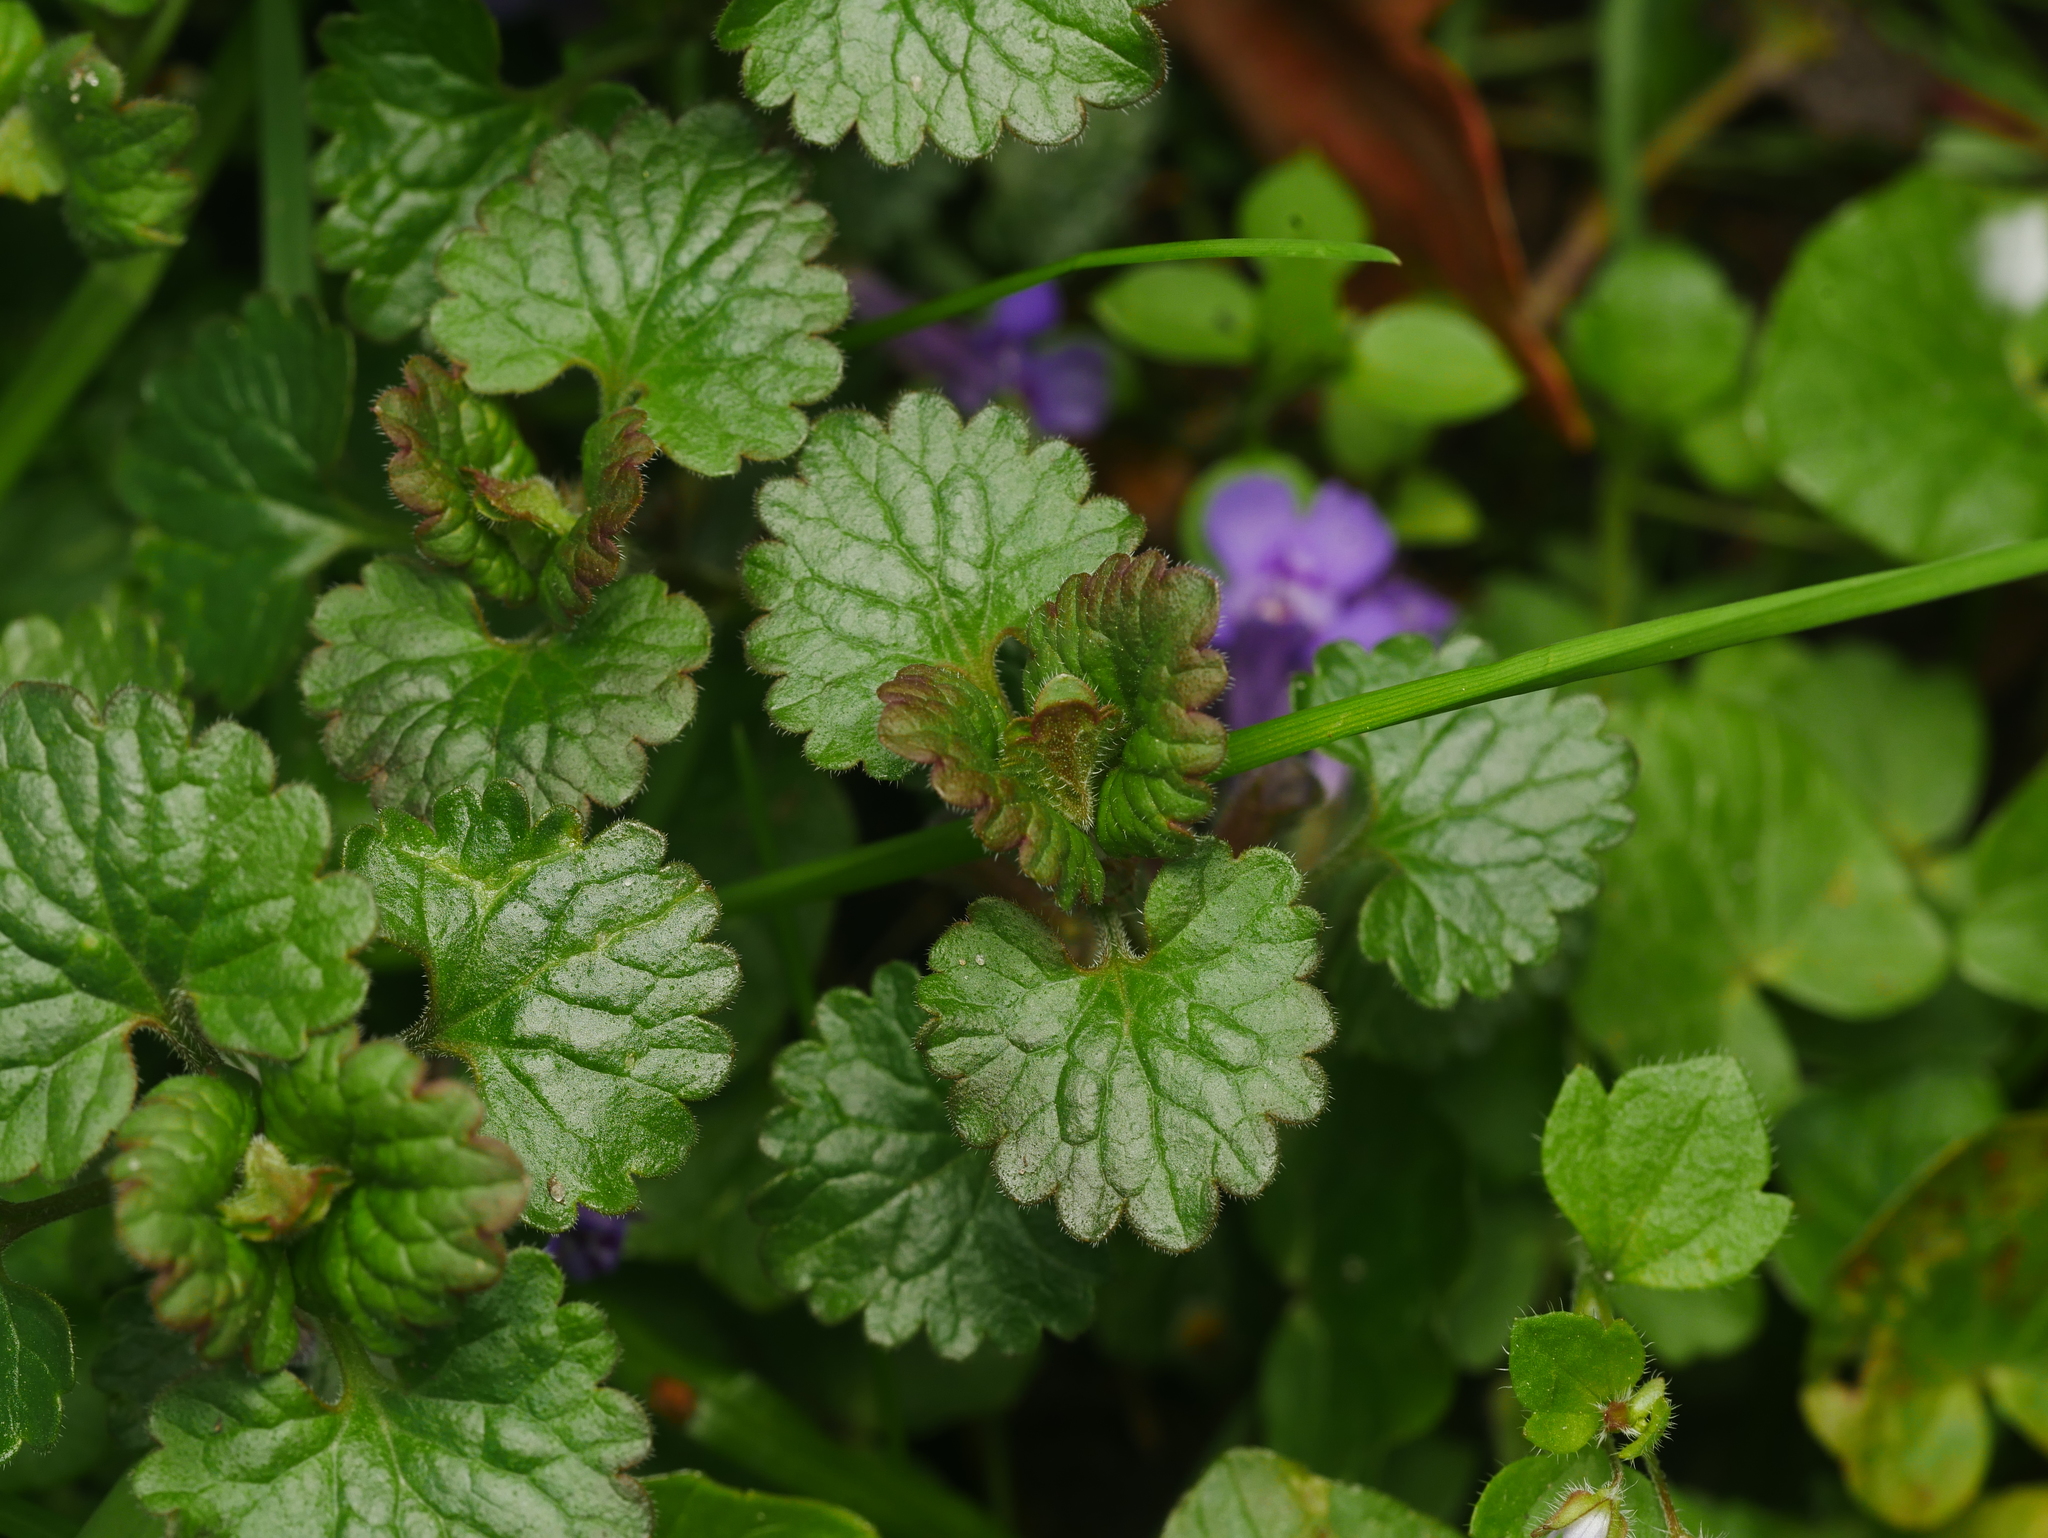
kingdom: Plantae
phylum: Tracheophyta
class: Magnoliopsida
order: Lamiales
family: Lamiaceae
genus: Glechoma
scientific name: Glechoma hederacea
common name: Ground ivy
